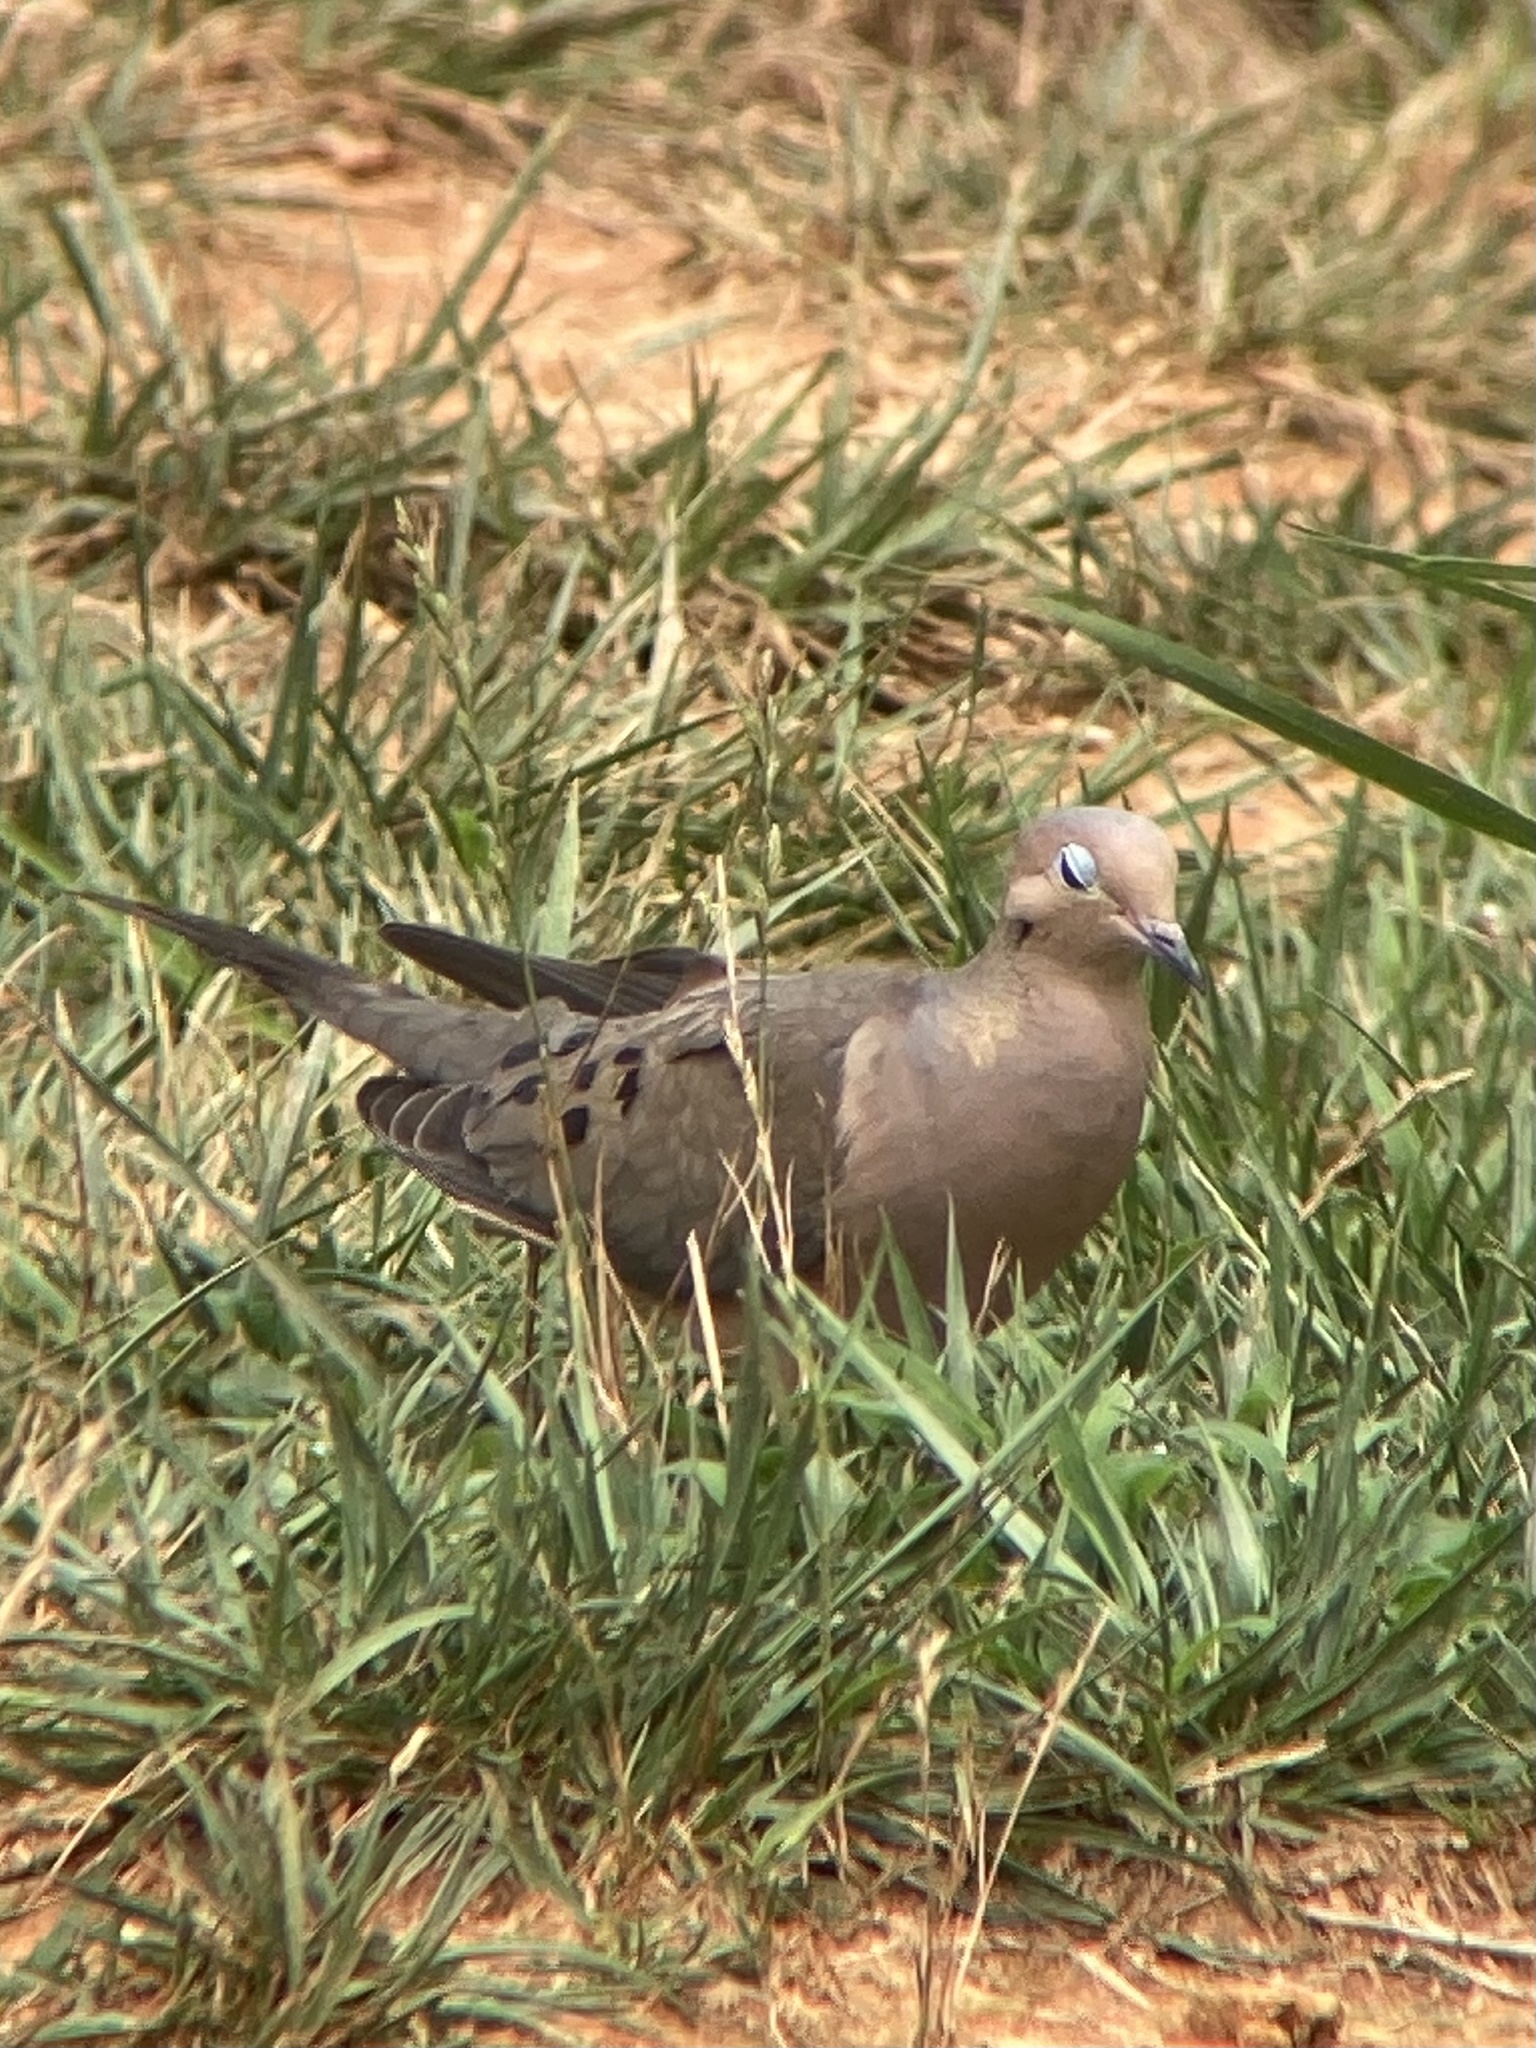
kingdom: Animalia
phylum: Chordata
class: Aves
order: Columbiformes
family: Columbidae
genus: Zenaida
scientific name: Zenaida macroura
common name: Mourning dove
